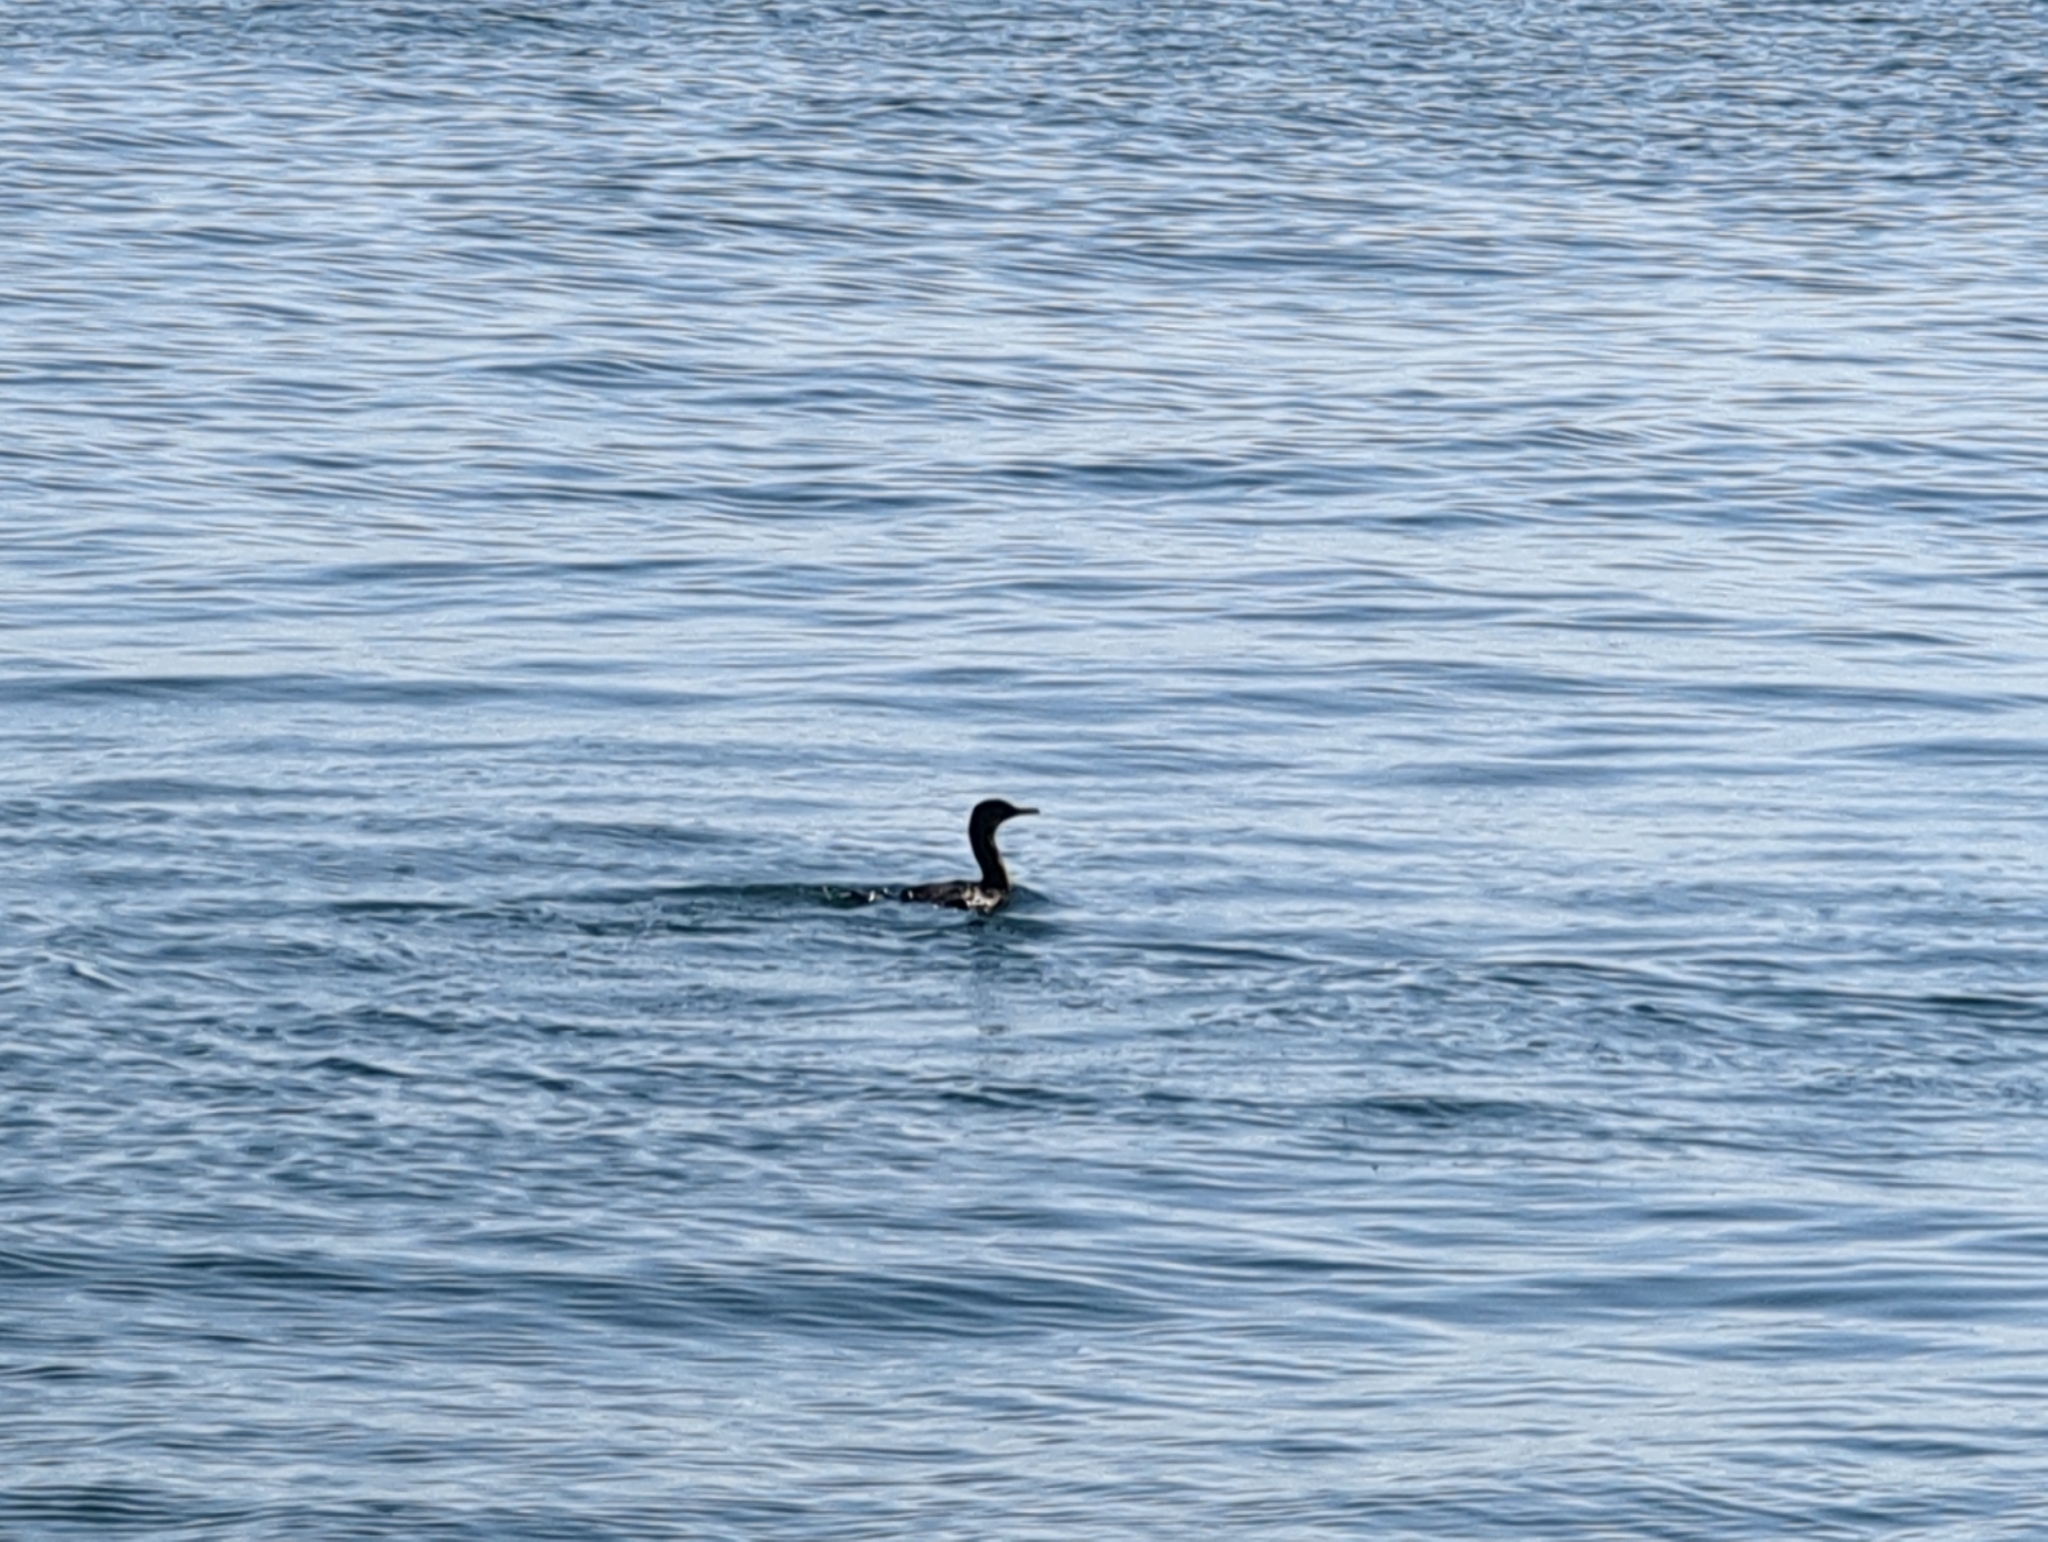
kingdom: Animalia
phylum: Chordata
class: Aves
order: Suliformes
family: Phalacrocoracidae
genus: Urile
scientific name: Urile penicillatus
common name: Brandt's cormorant
